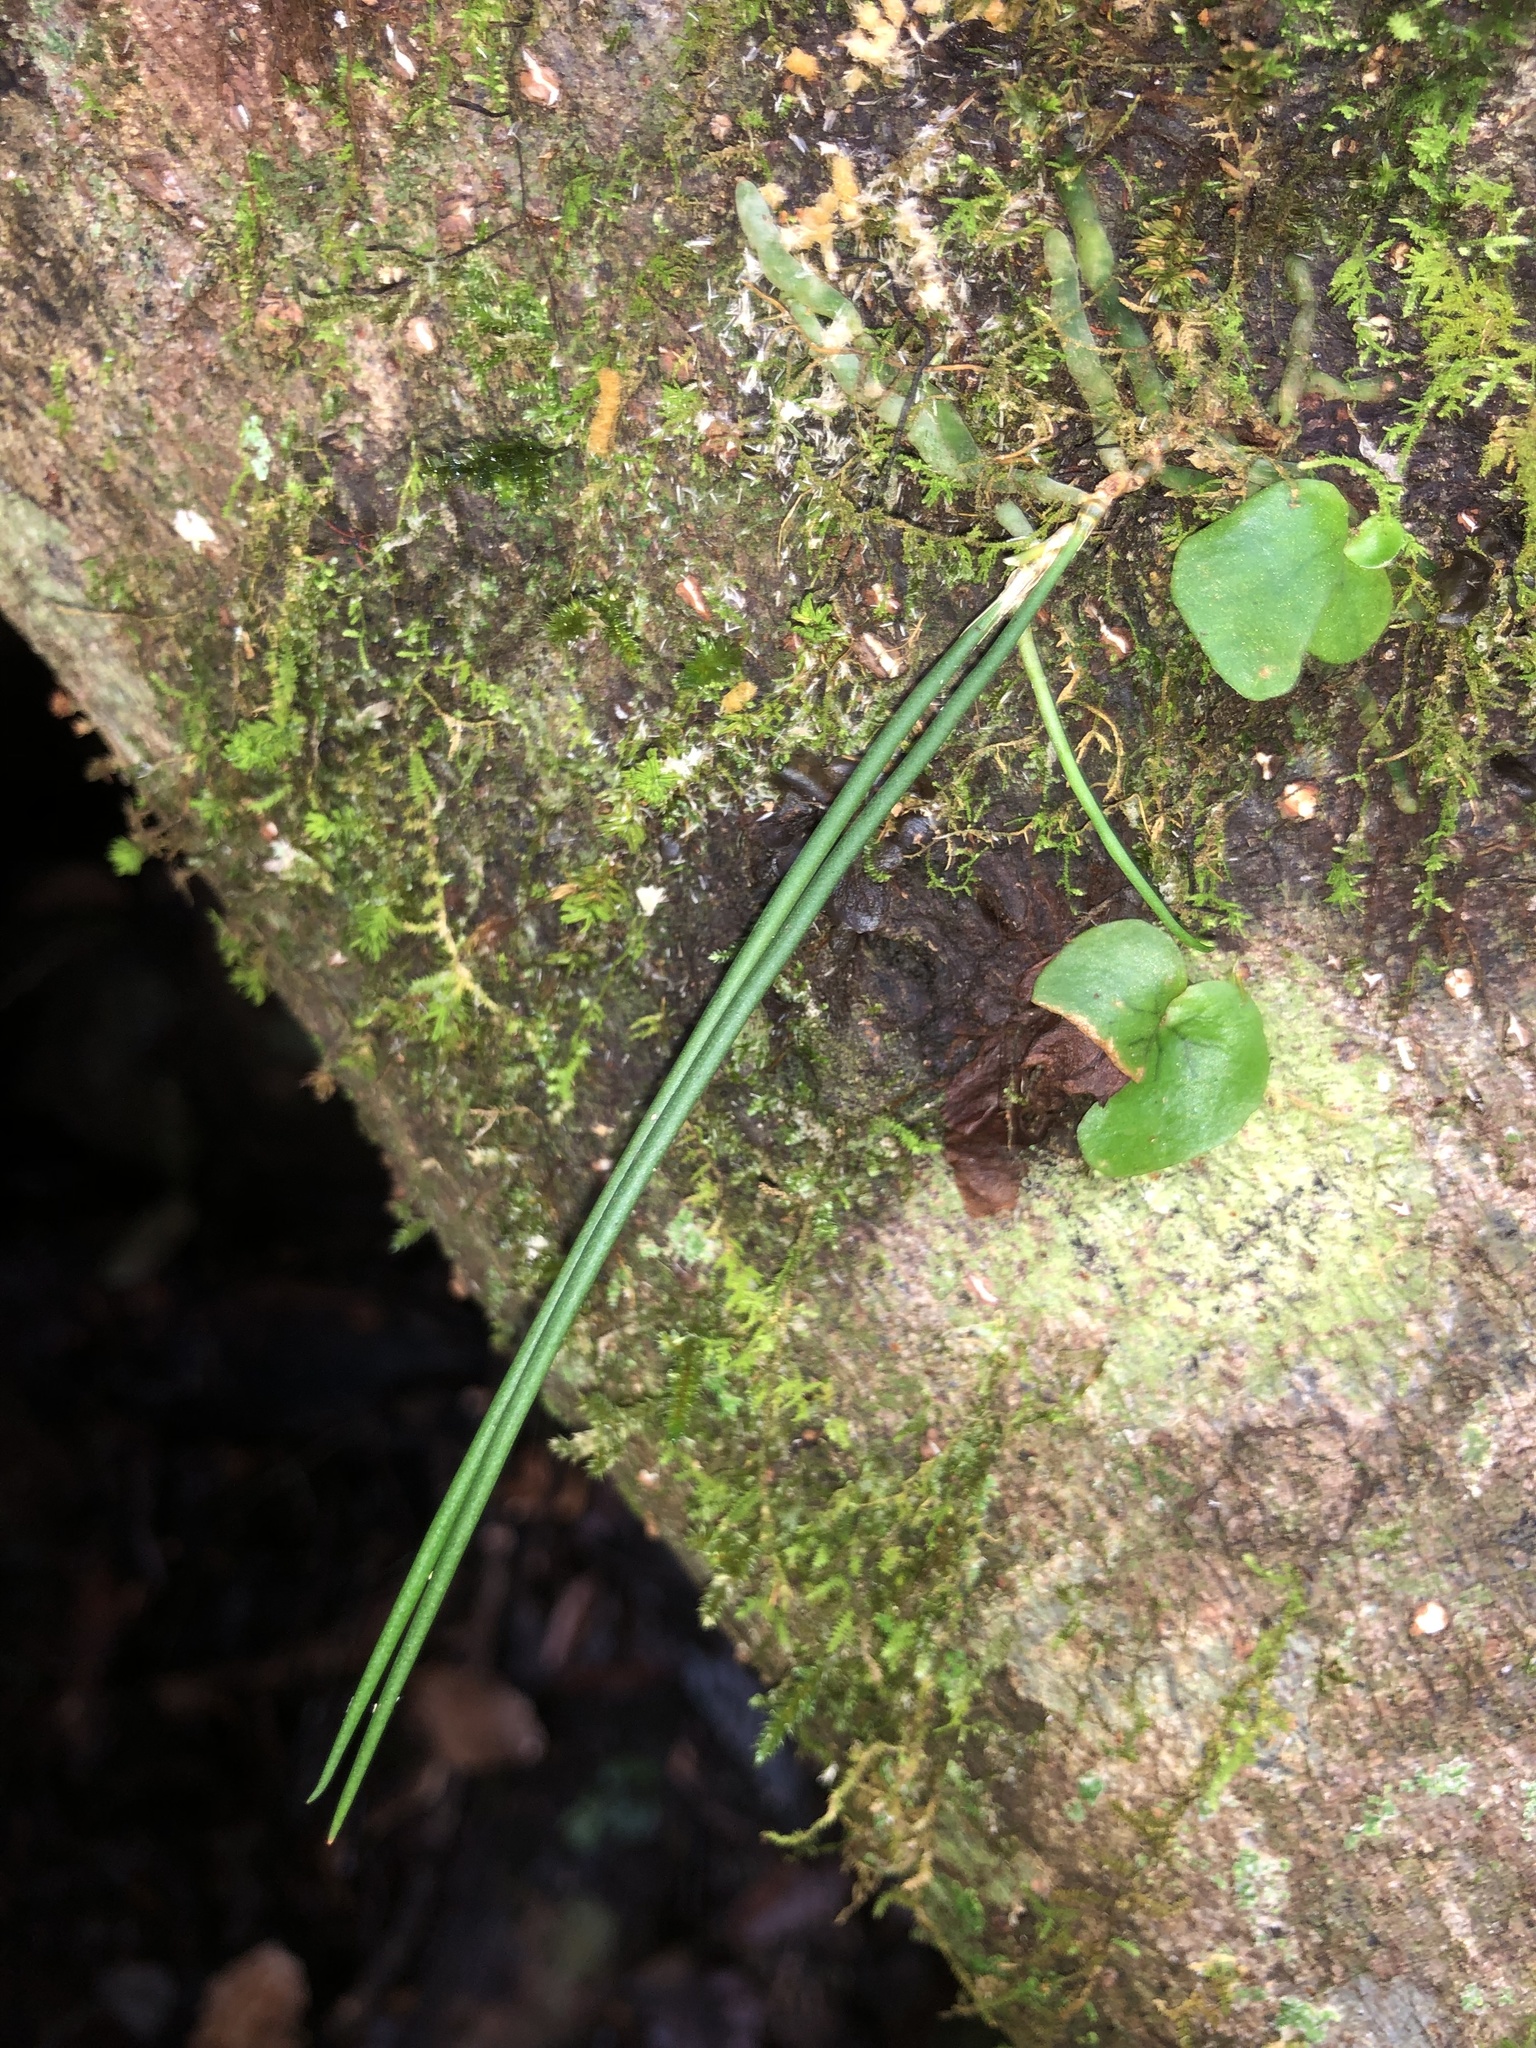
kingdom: Plantae
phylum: Tracheophyta
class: Liliopsida
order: Asparagales
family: Orchidaceae
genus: Dendrobium
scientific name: Dendrobium bowmanii
